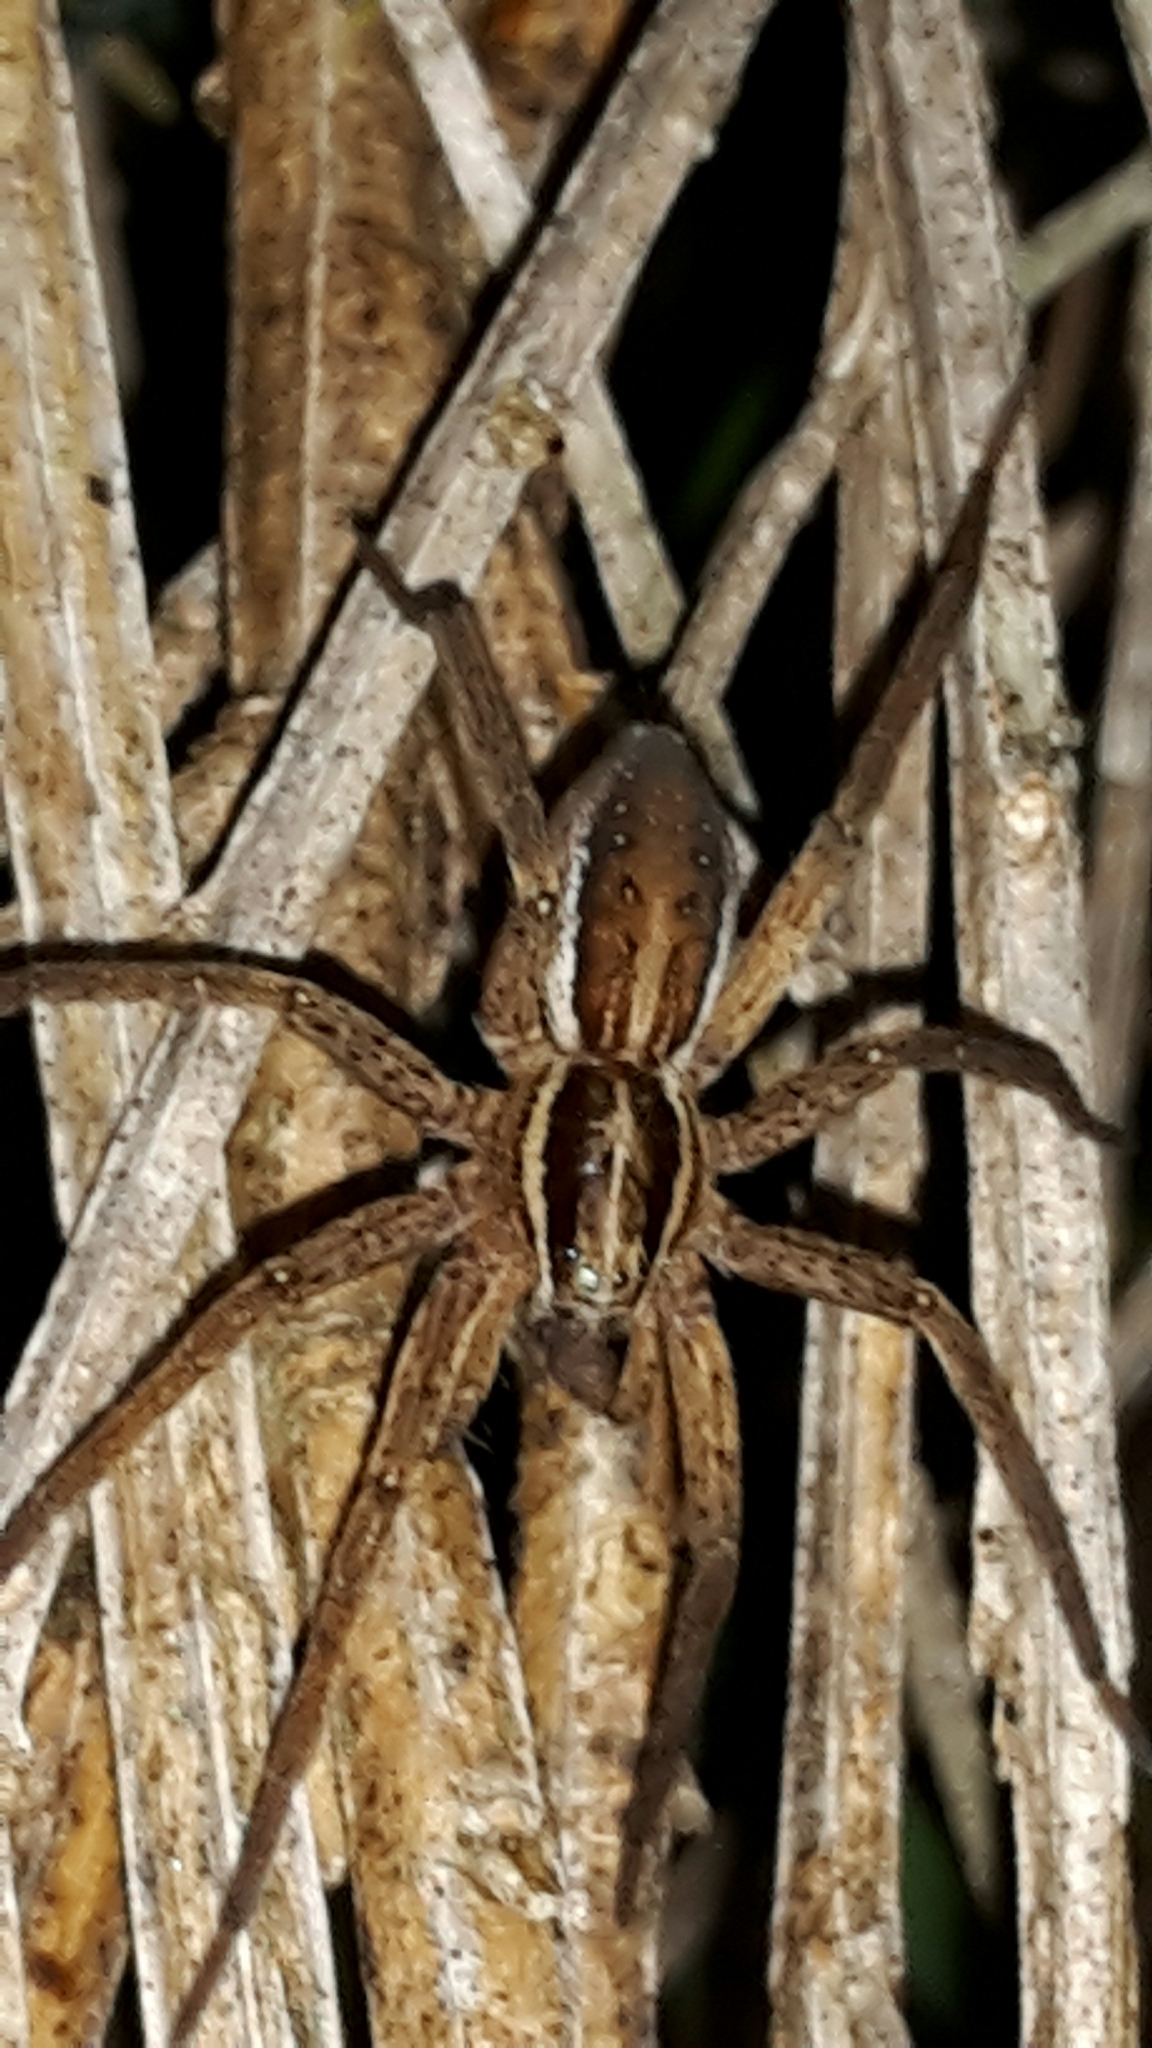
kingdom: Animalia
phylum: Arthropoda
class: Arachnida
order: Araneae
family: Pisauridae
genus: Dolomedes
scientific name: Dolomedes minor
